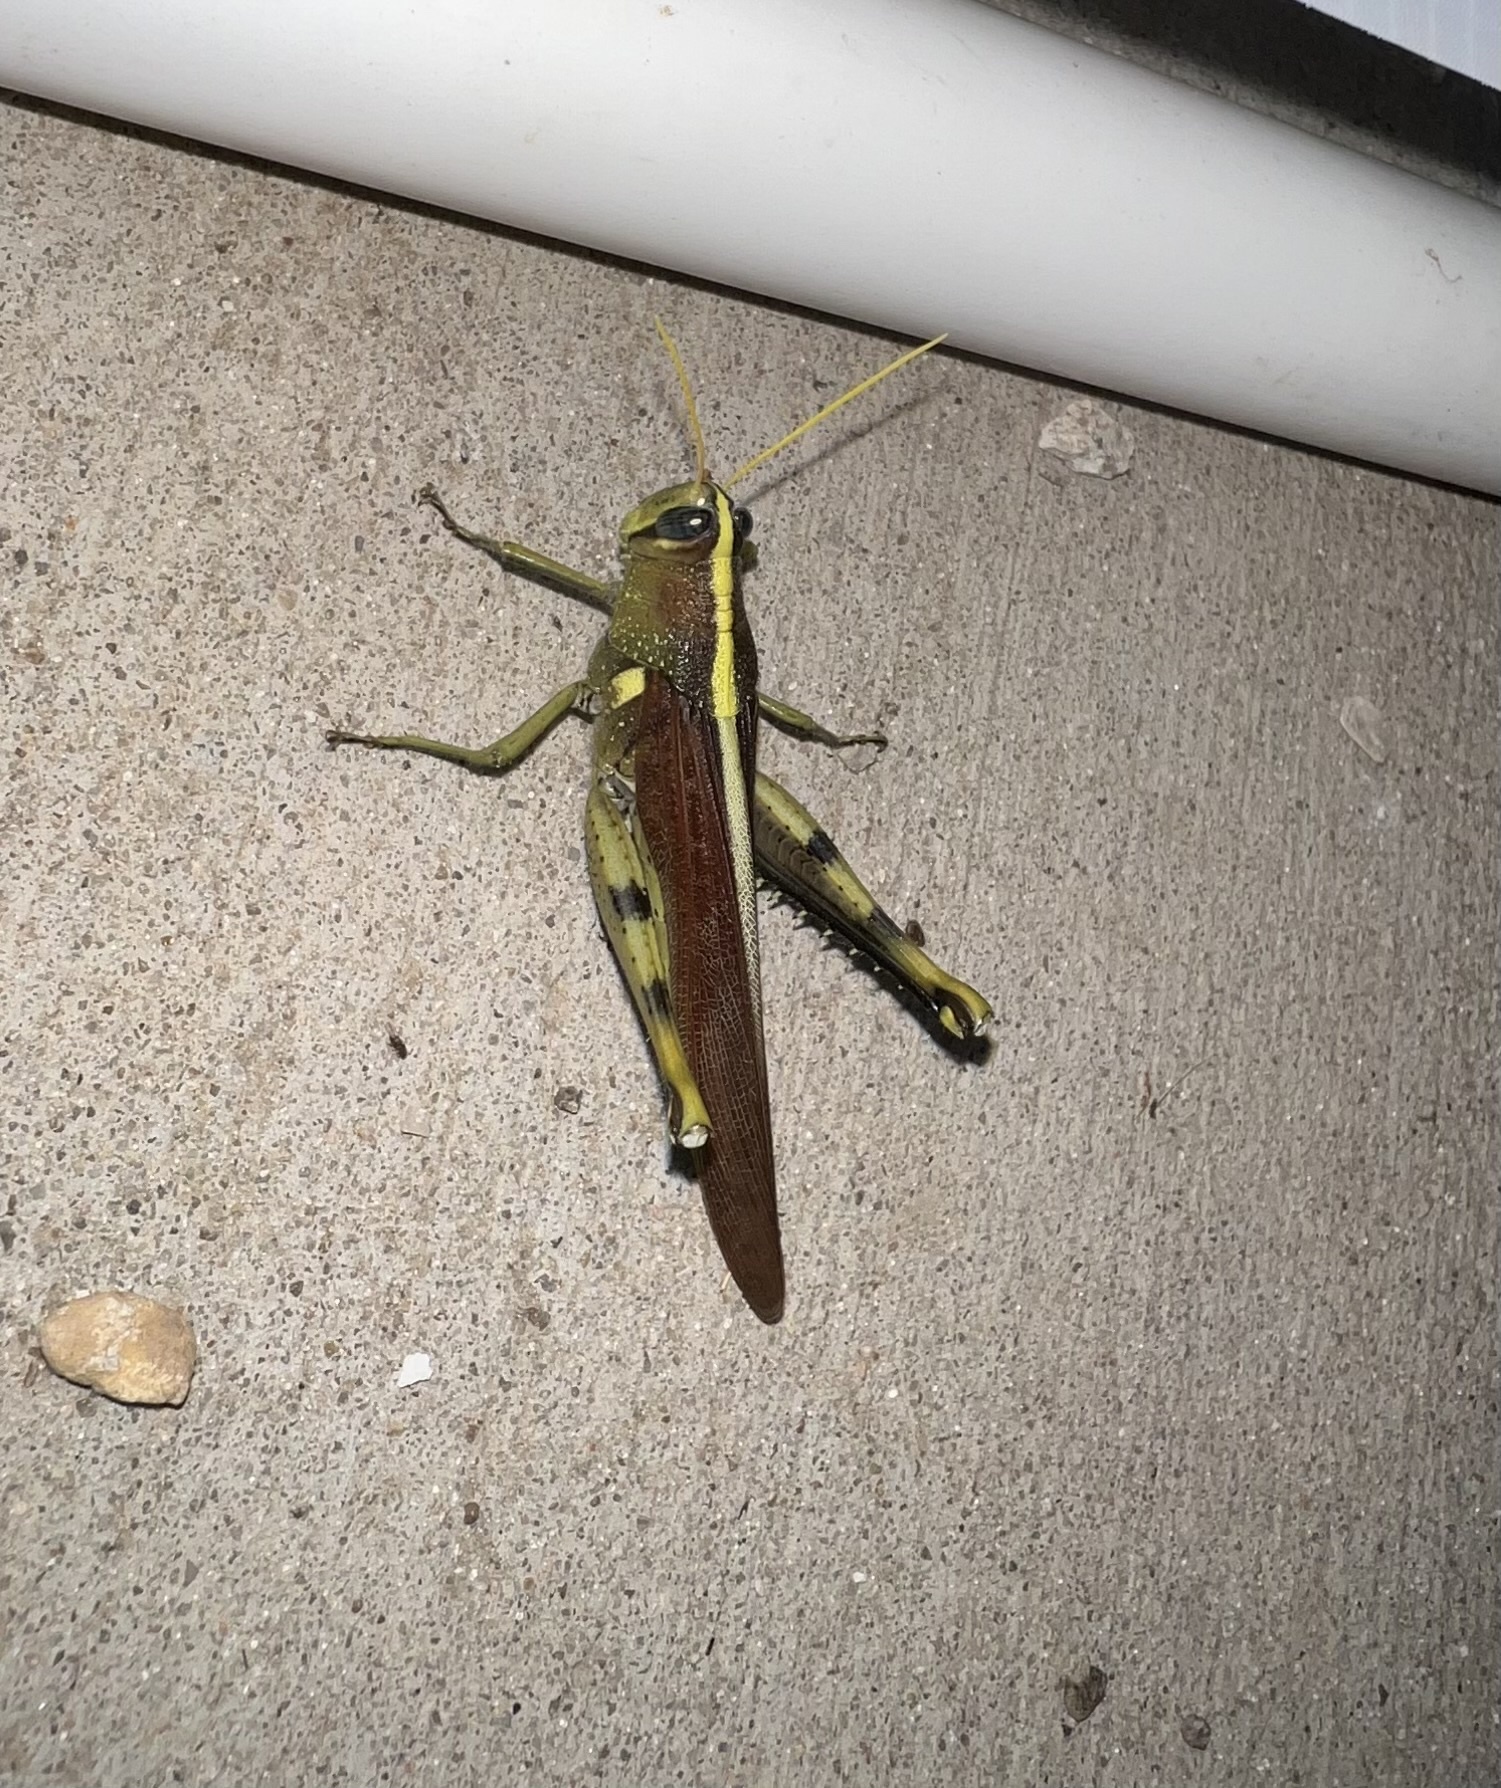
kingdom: Animalia
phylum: Arthropoda
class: Insecta
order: Orthoptera
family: Acrididae
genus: Schistocerca
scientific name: Schistocerca obscura
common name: Obscure bird grasshopper
